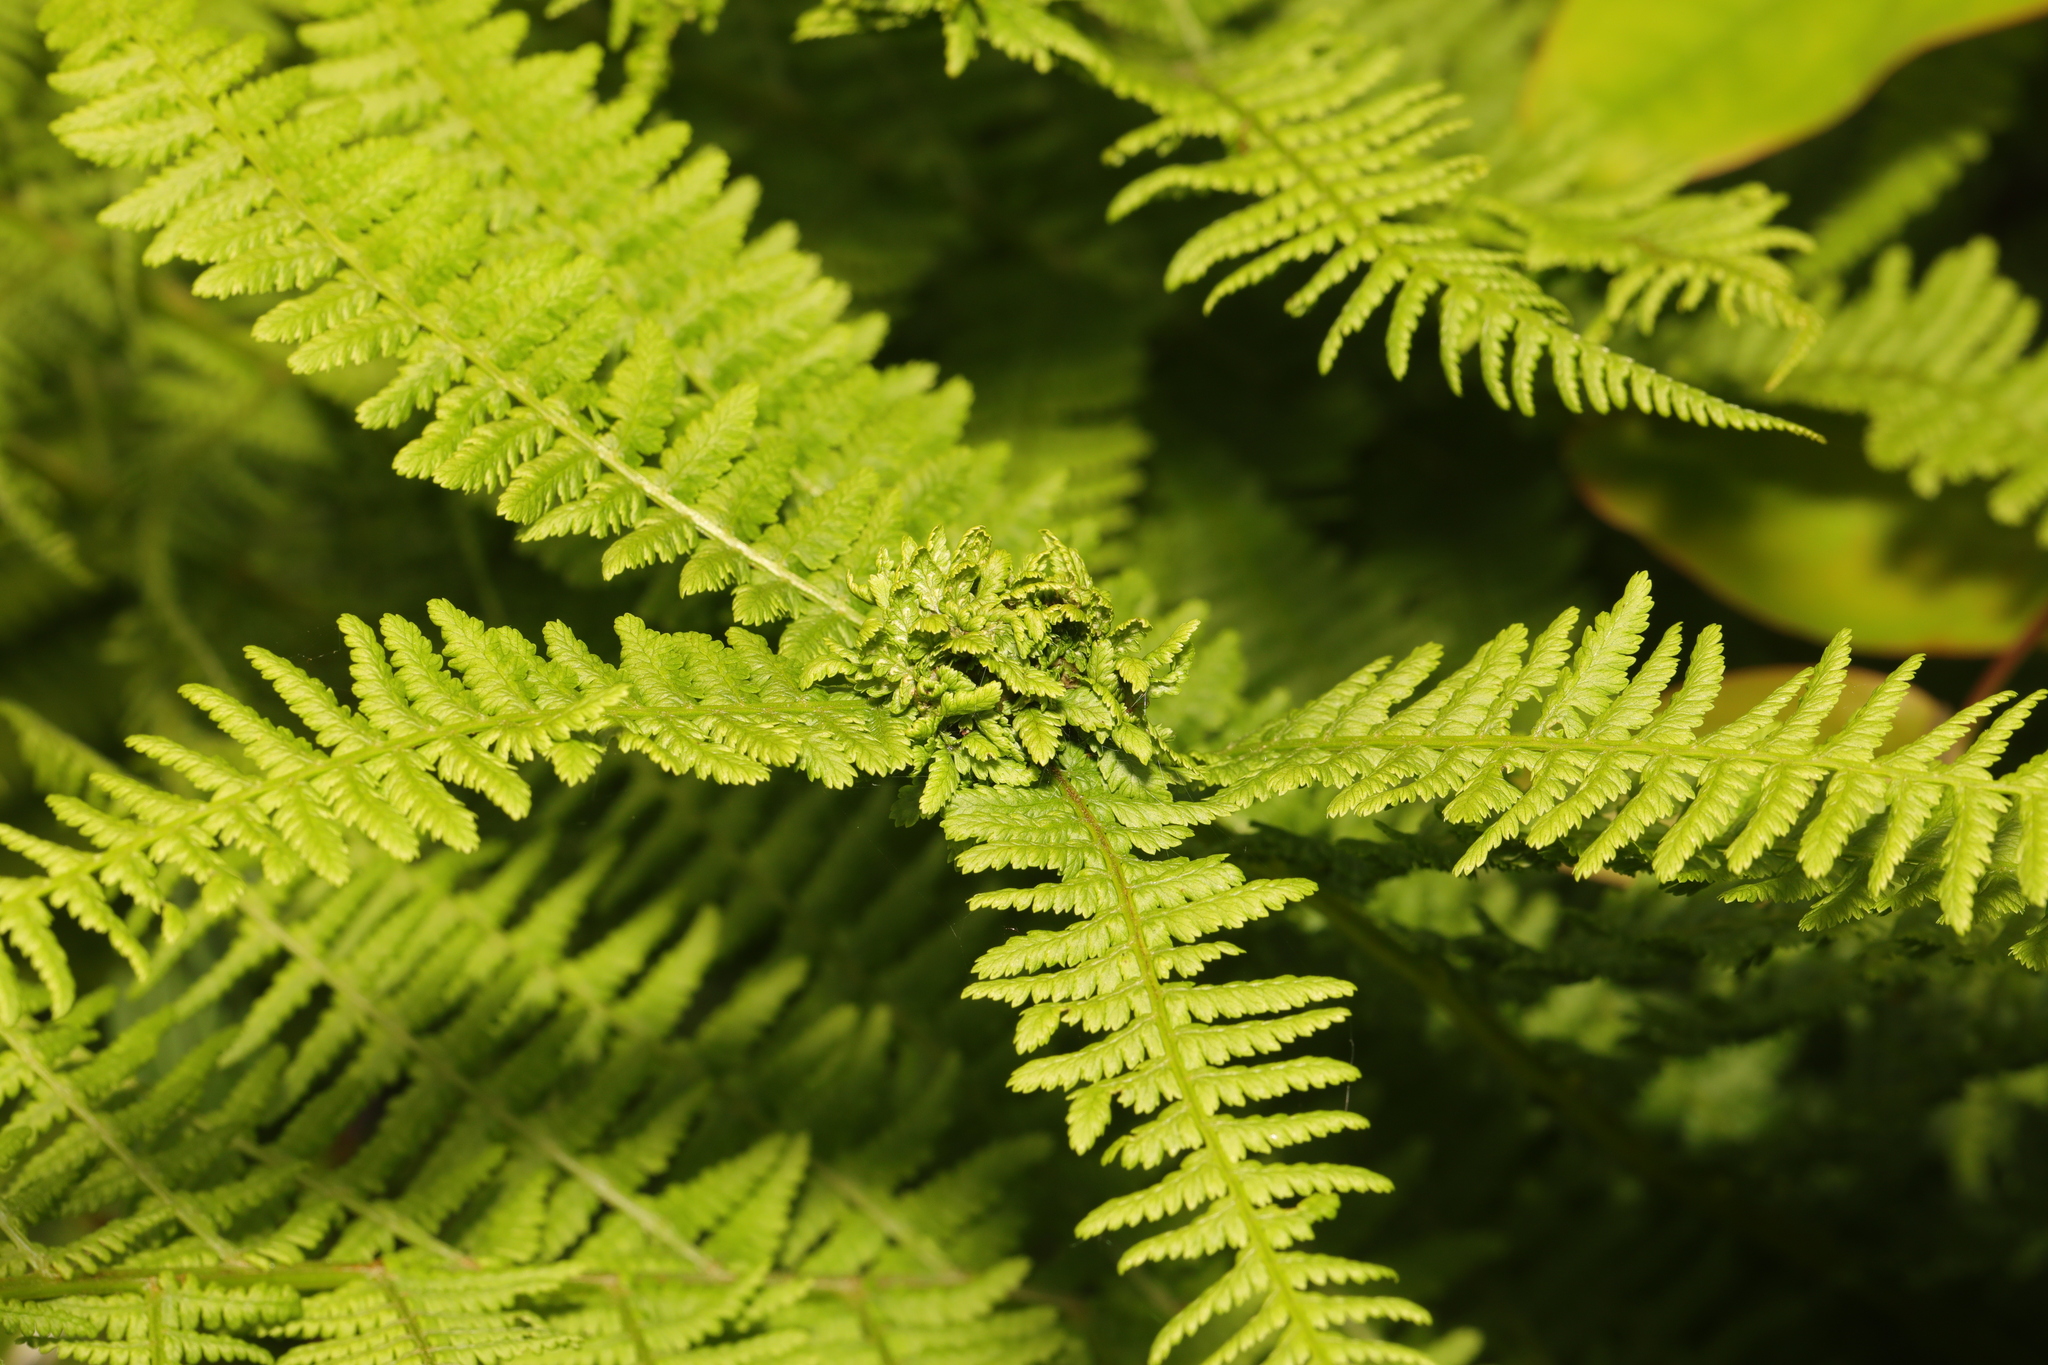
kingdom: Plantae
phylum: Tracheophyta
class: Polypodiopsida
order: Polypodiales
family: Athyriaceae
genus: Athyrium
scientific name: Athyrium filix-femina
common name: Lady fern
